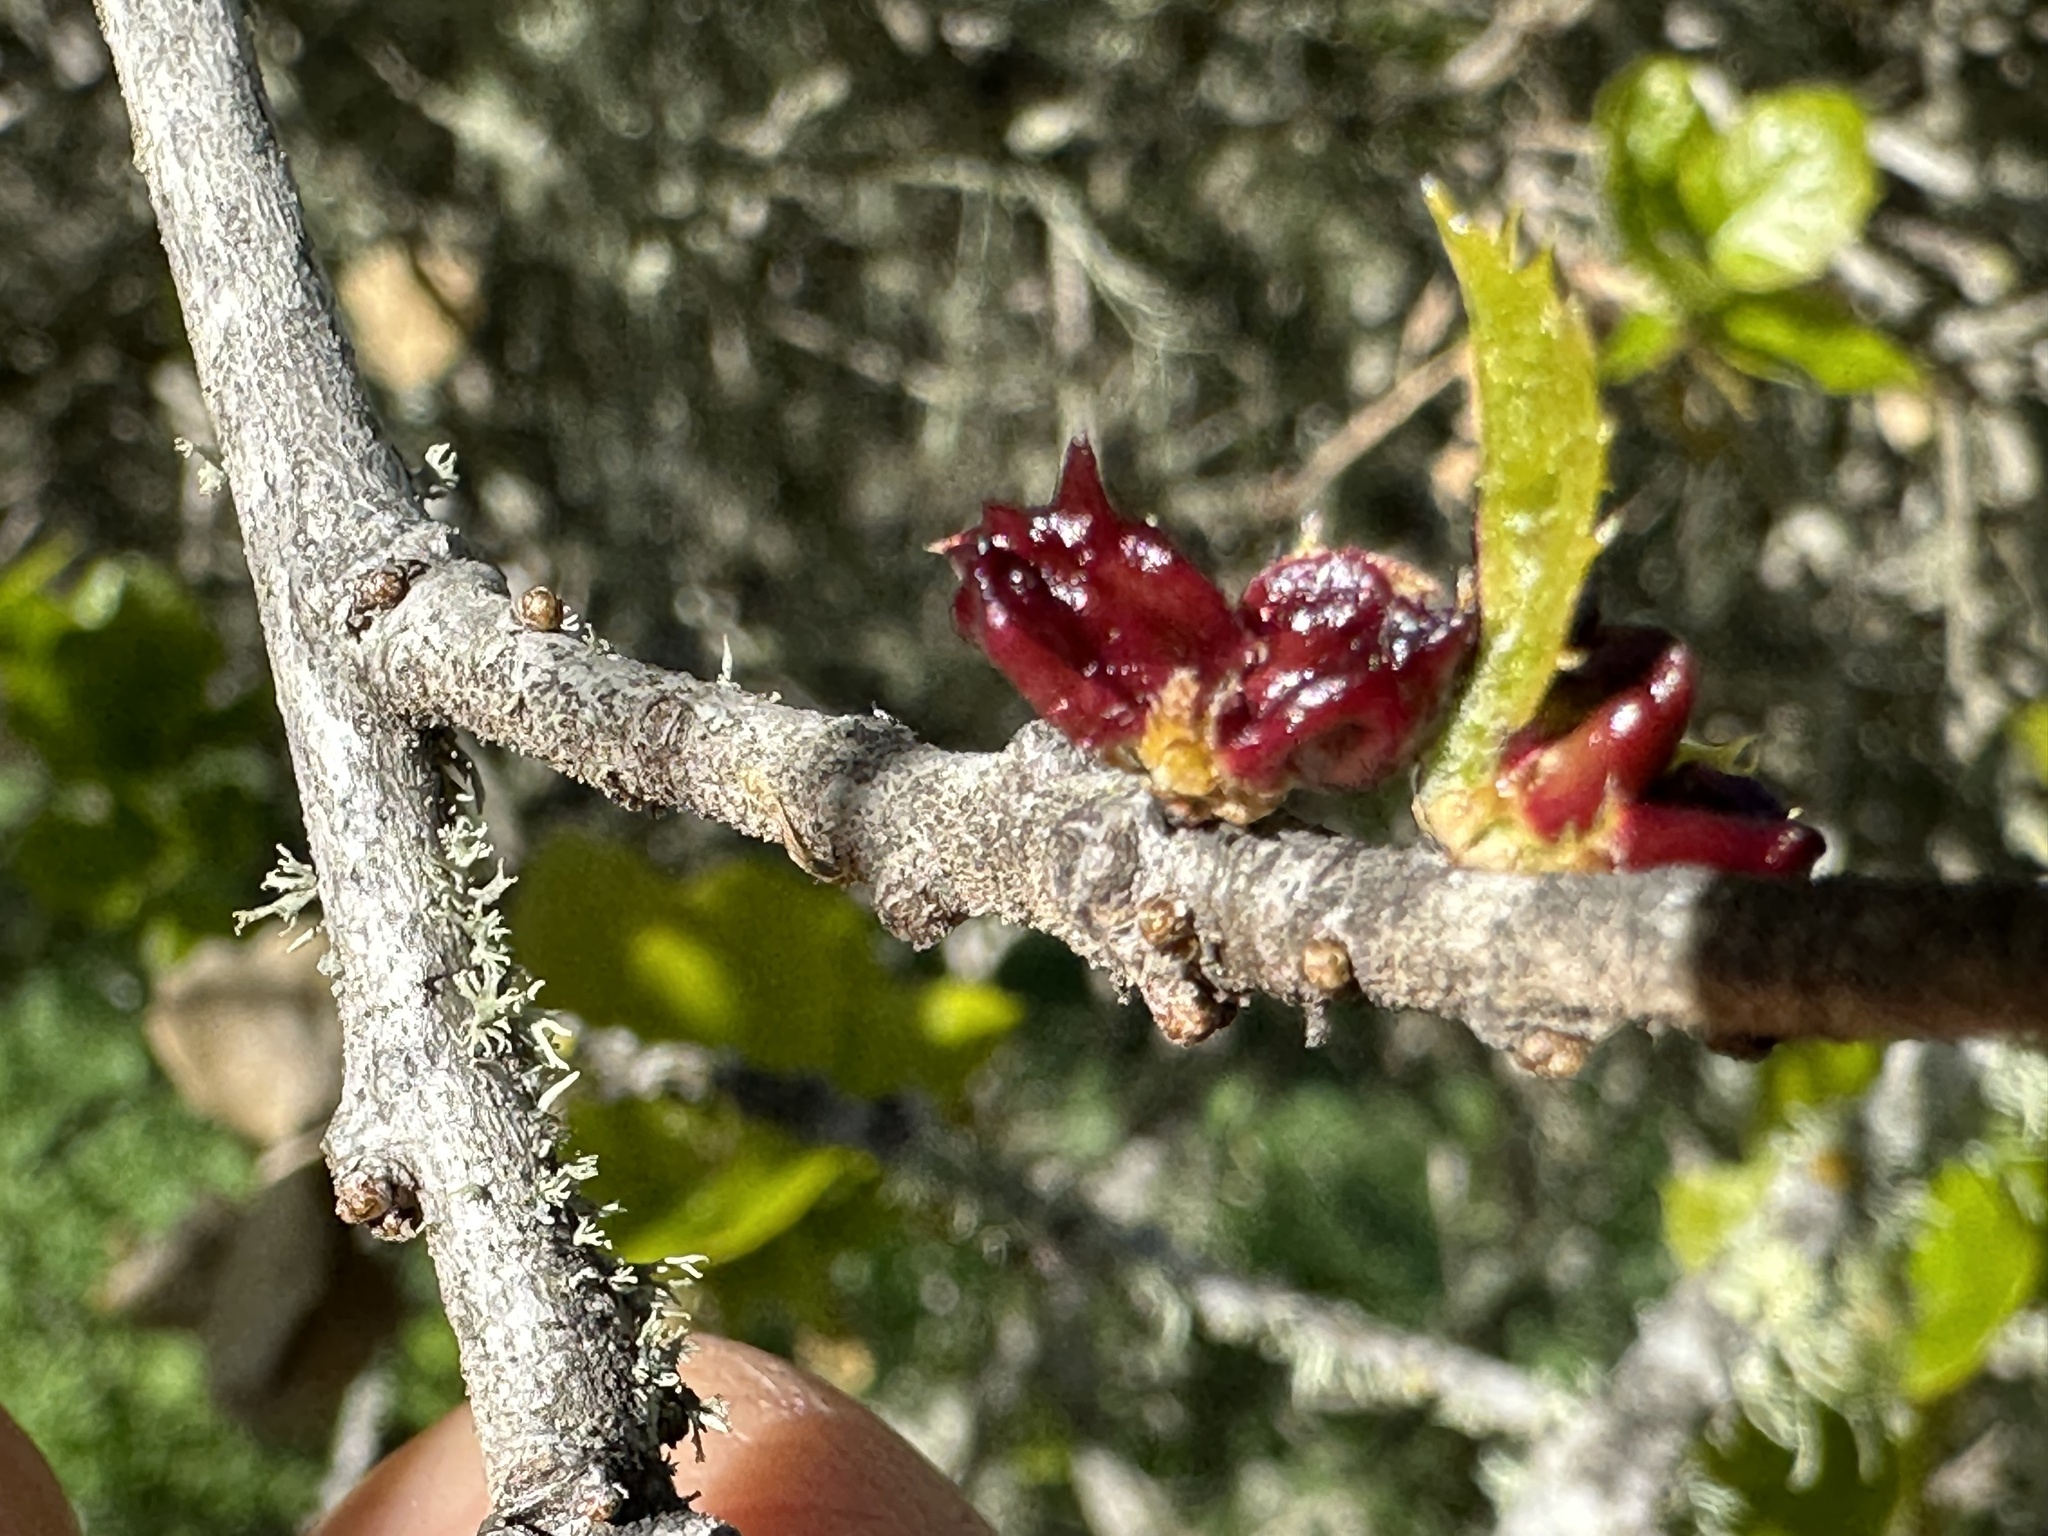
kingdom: Animalia
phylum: Arthropoda
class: Insecta
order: Hymenoptera
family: Cynipidae
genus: Dryocosmus
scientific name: Dryocosmus
